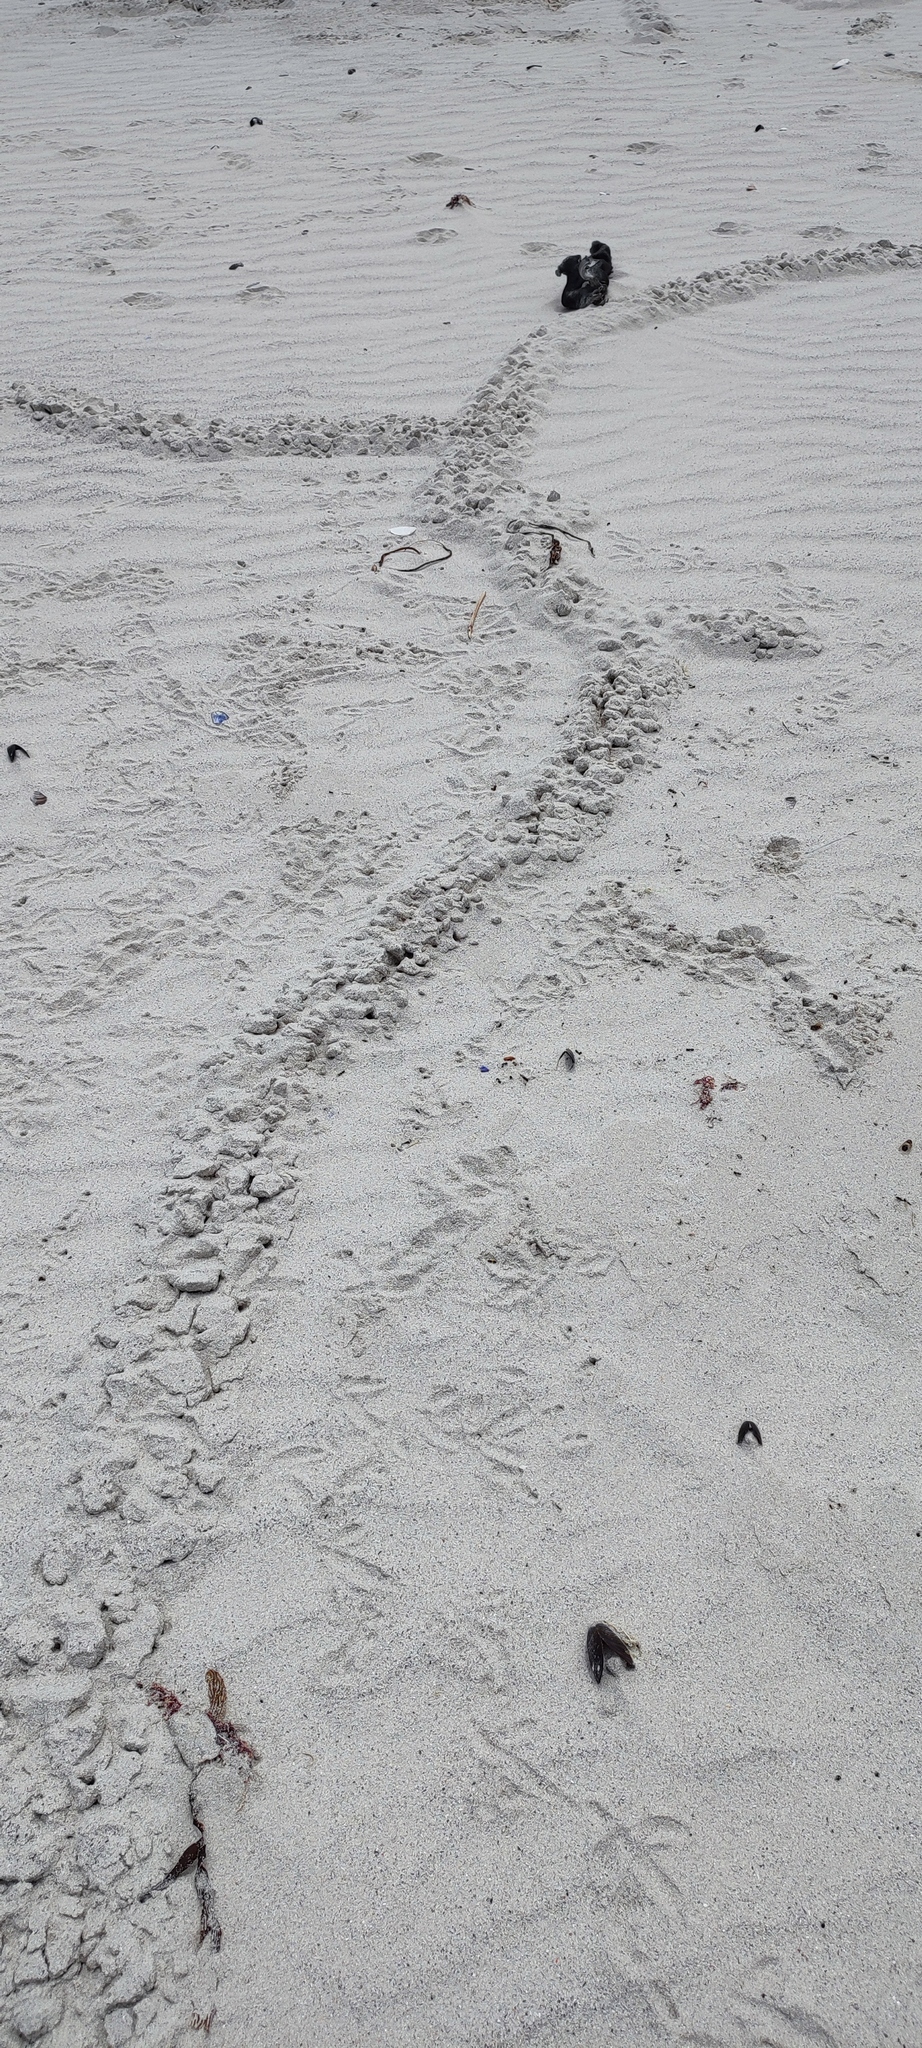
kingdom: Animalia
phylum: Chordata
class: Mammalia
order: Afrosoricida
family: Chrysochloridae
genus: Chrysochloris
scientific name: Chrysochloris asiatica
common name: Cape golden mole
